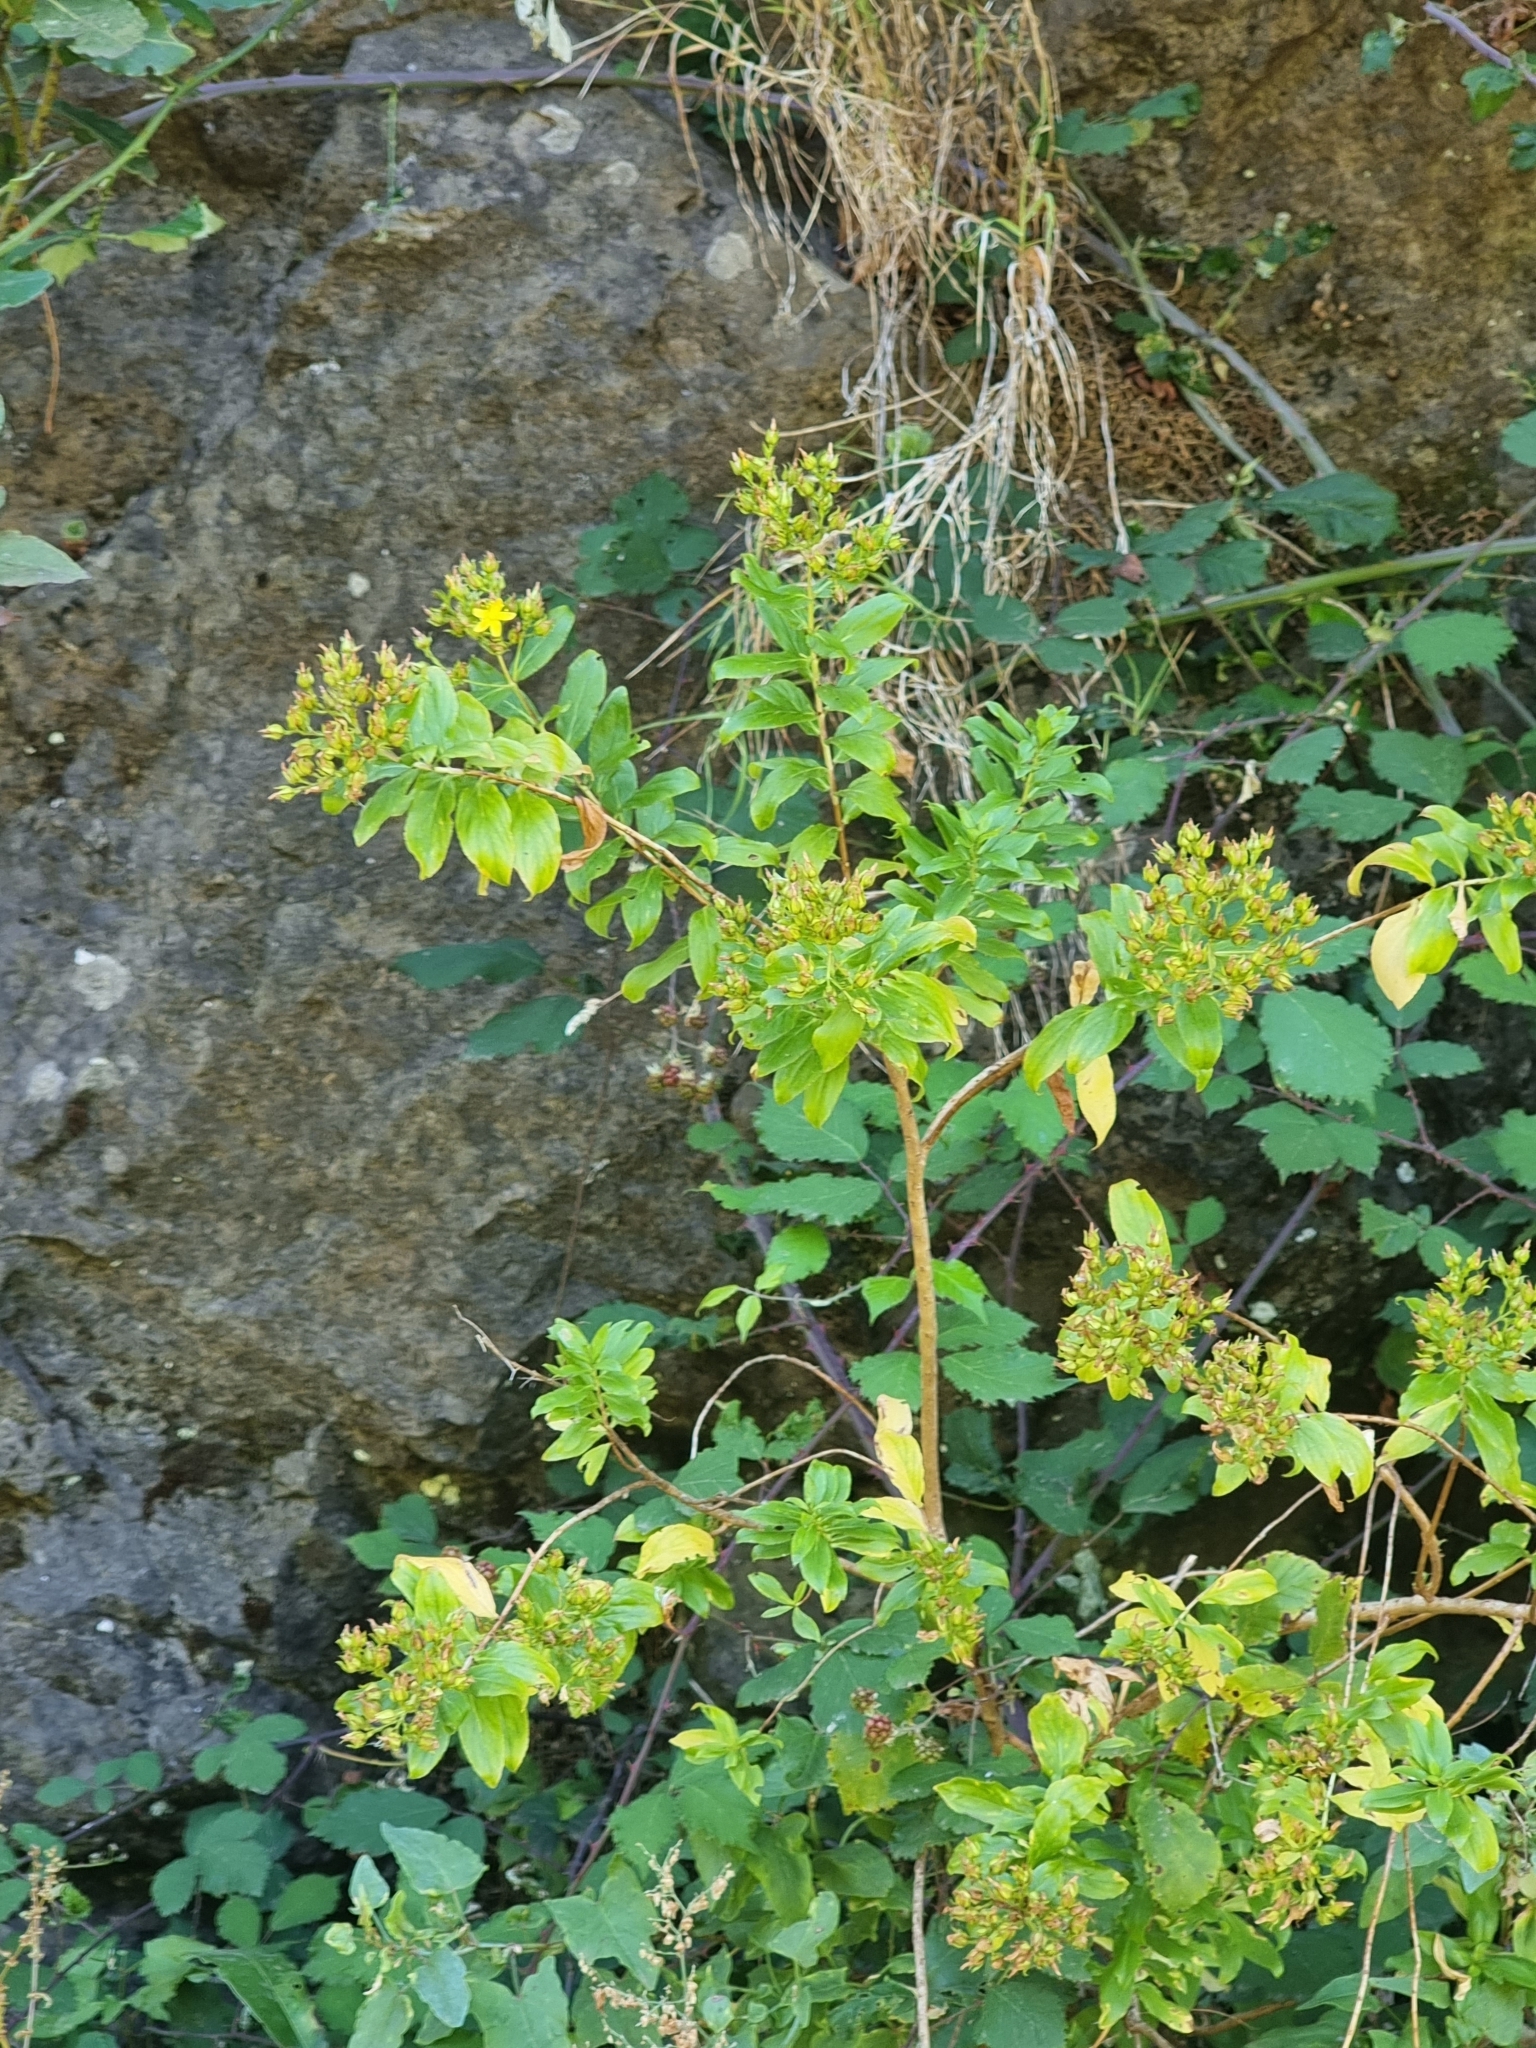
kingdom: Plantae
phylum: Tracheophyta
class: Magnoliopsida
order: Malpighiales
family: Hypericaceae
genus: Hypericum
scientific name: Hypericum glandulosum
